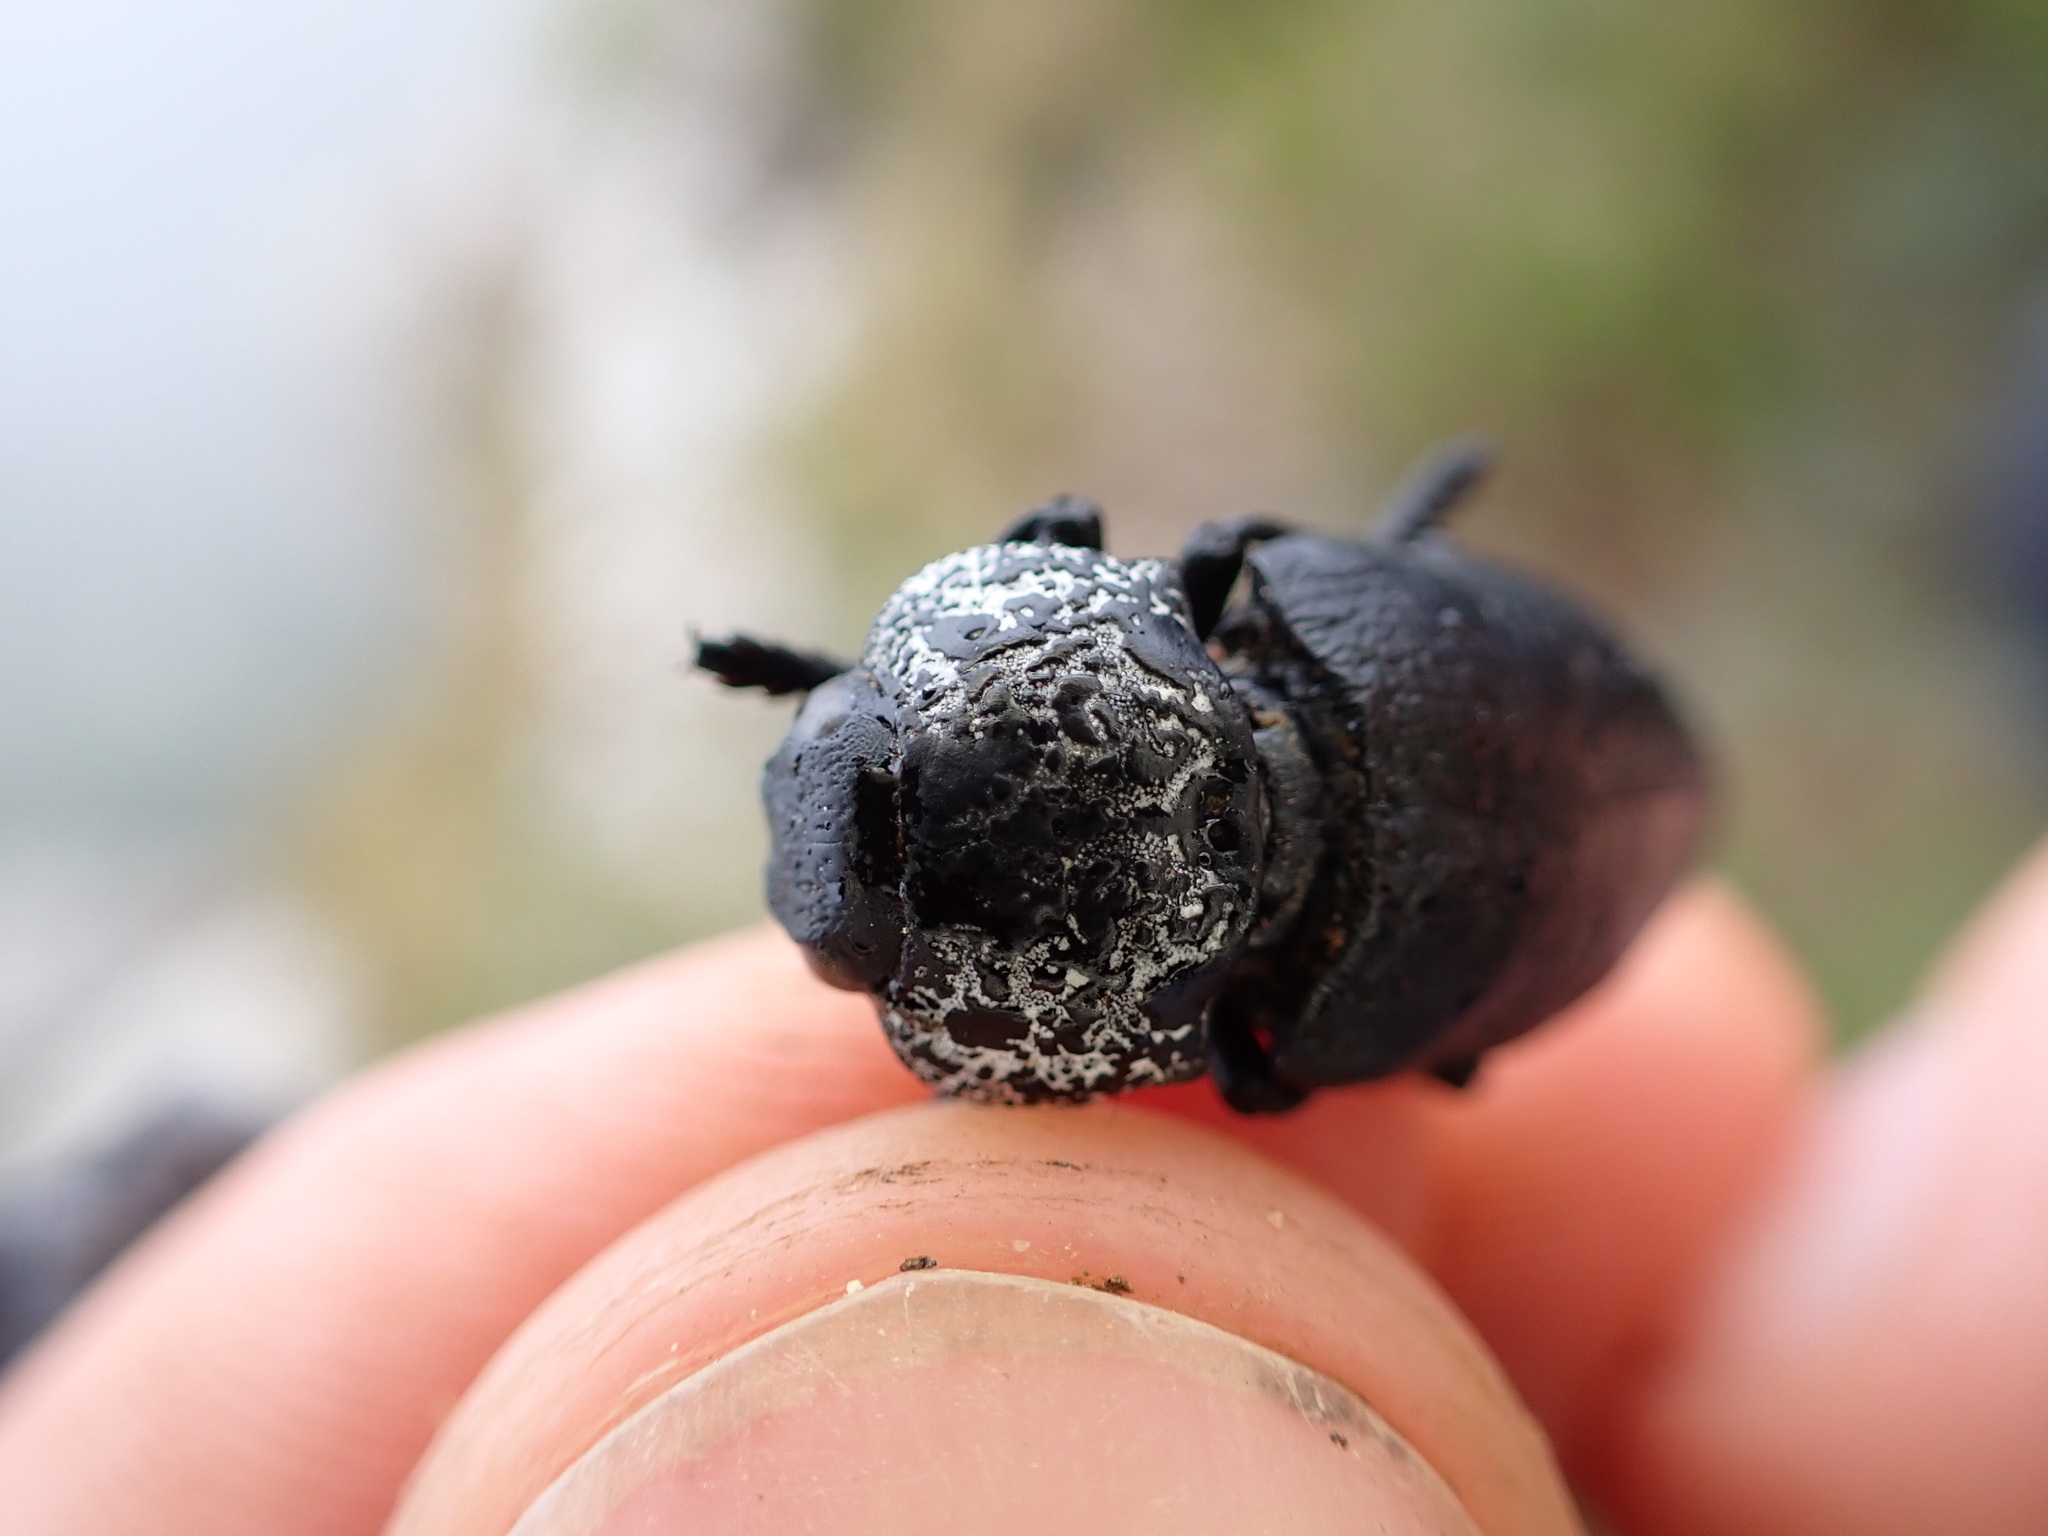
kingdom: Animalia
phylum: Arthropoda
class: Insecta
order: Coleoptera
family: Buprestidae
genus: Capnodis
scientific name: Capnodis tenebrionis
